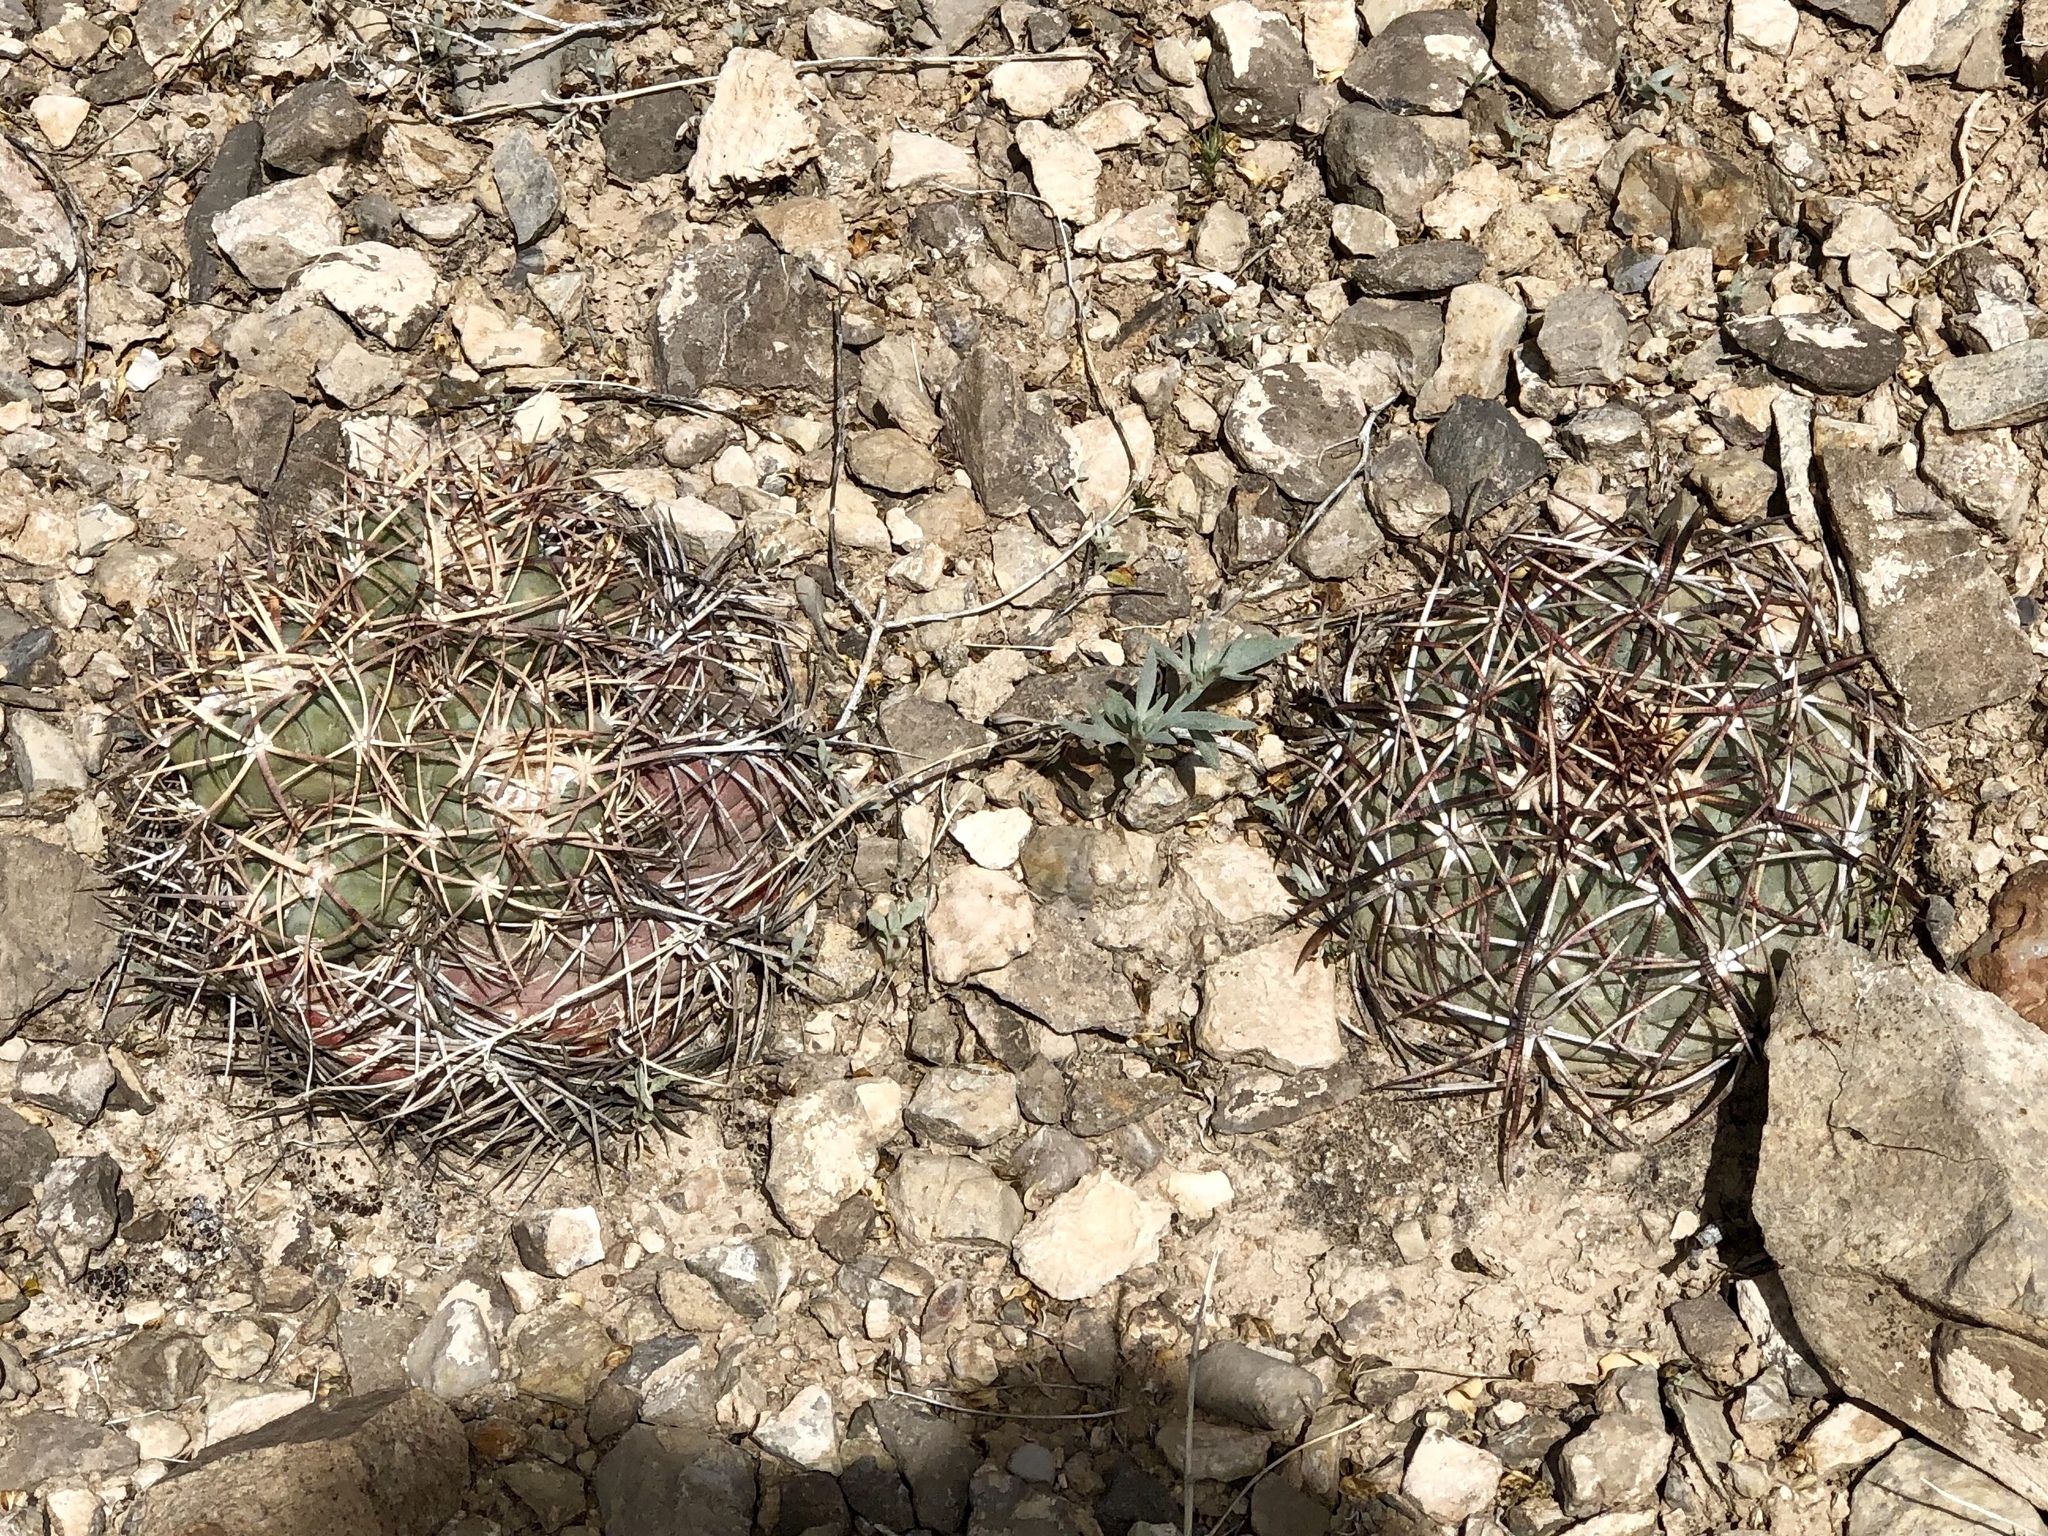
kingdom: Plantae
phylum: Tracheophyta
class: Magnoliopsida
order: Caryophyllales
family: Cactaceae
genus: Echinocactus
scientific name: Echinocactus horizonthalonius
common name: Devilshead
